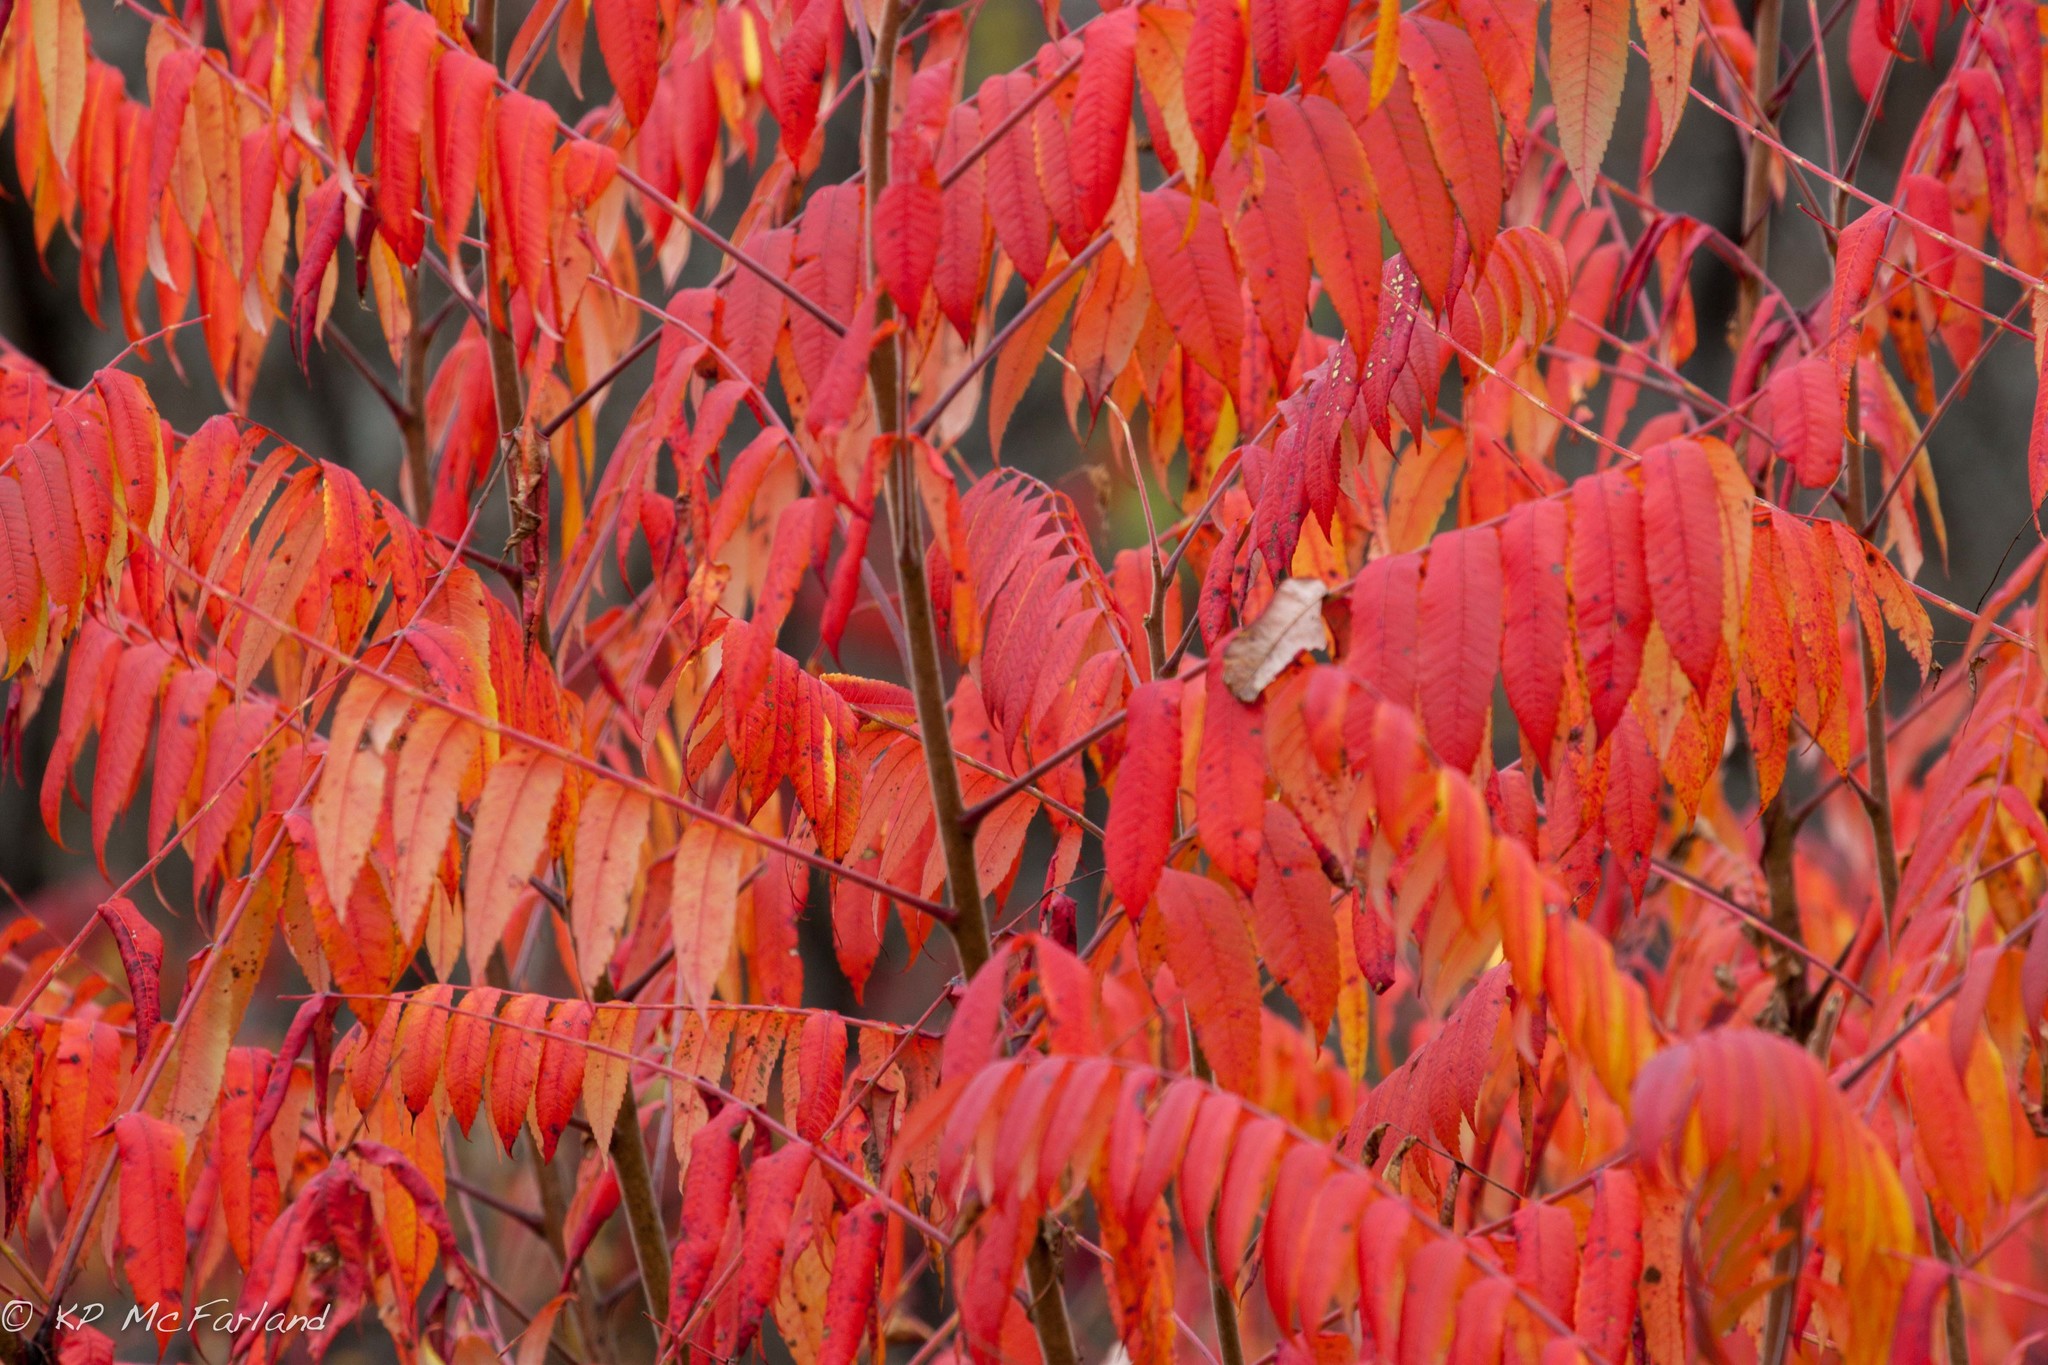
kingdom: Plantae
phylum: Tracheophyta
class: Magnoliopsida
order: Sapindales
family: Anacardiaceae
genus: Rhus
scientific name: Rhus typhina
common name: Staghorn sumac
